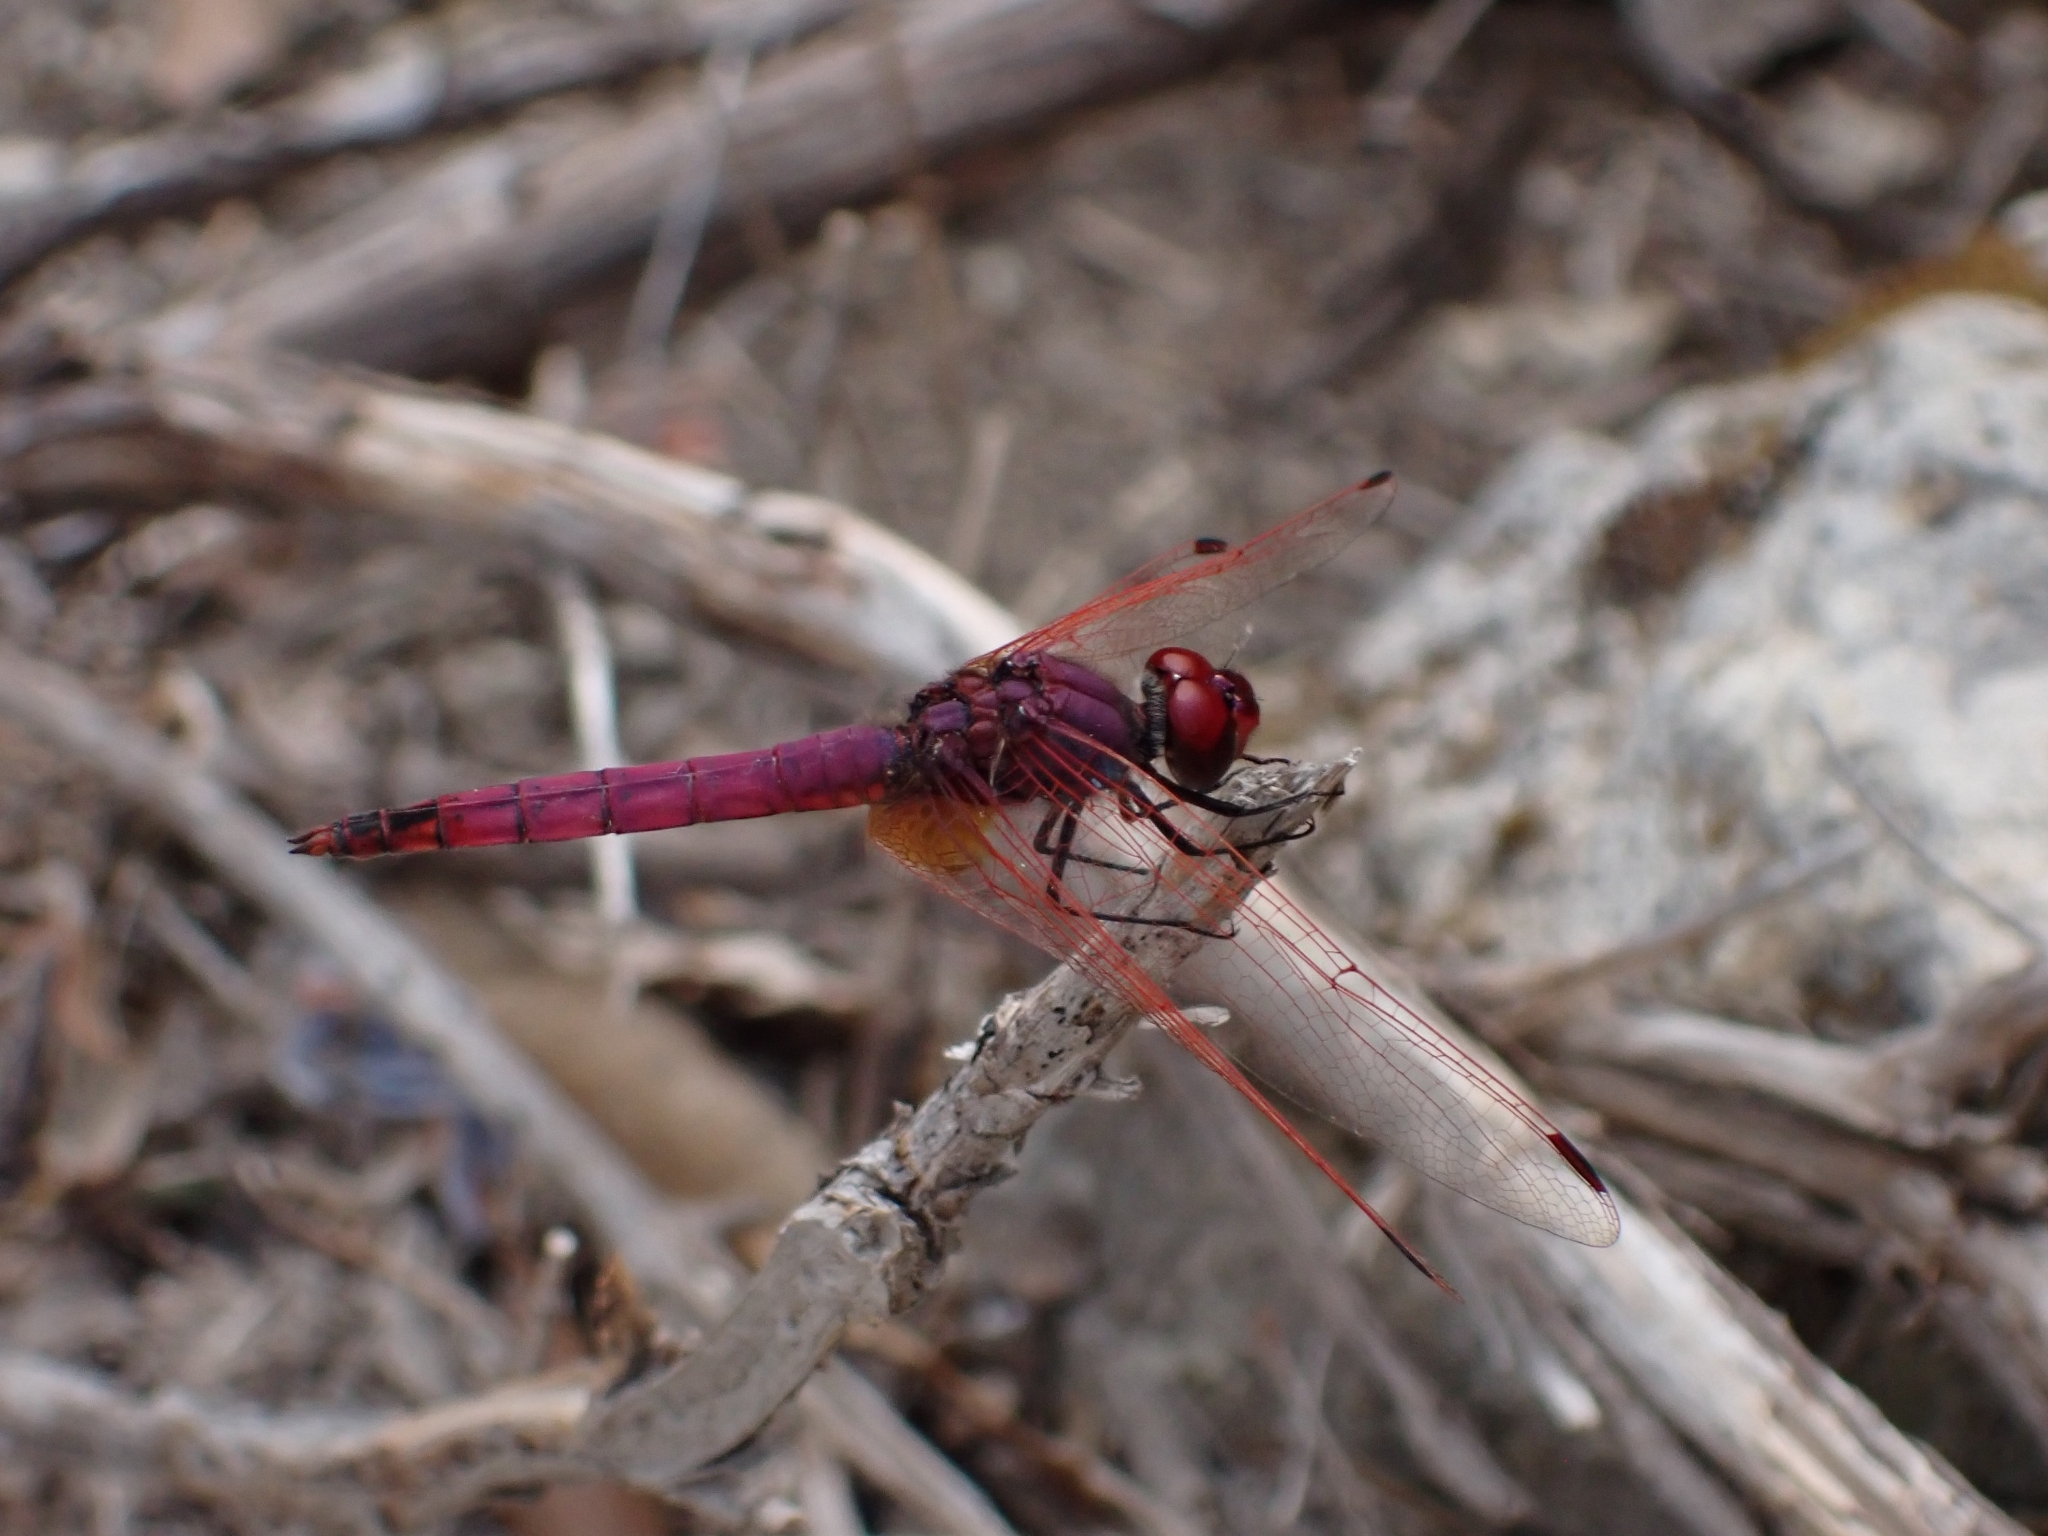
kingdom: Animalia
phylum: Arthropoda
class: Insecta
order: Odonata
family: Libellulidae
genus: Trithemis
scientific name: Trithemis annulata
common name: Violet dropwing
